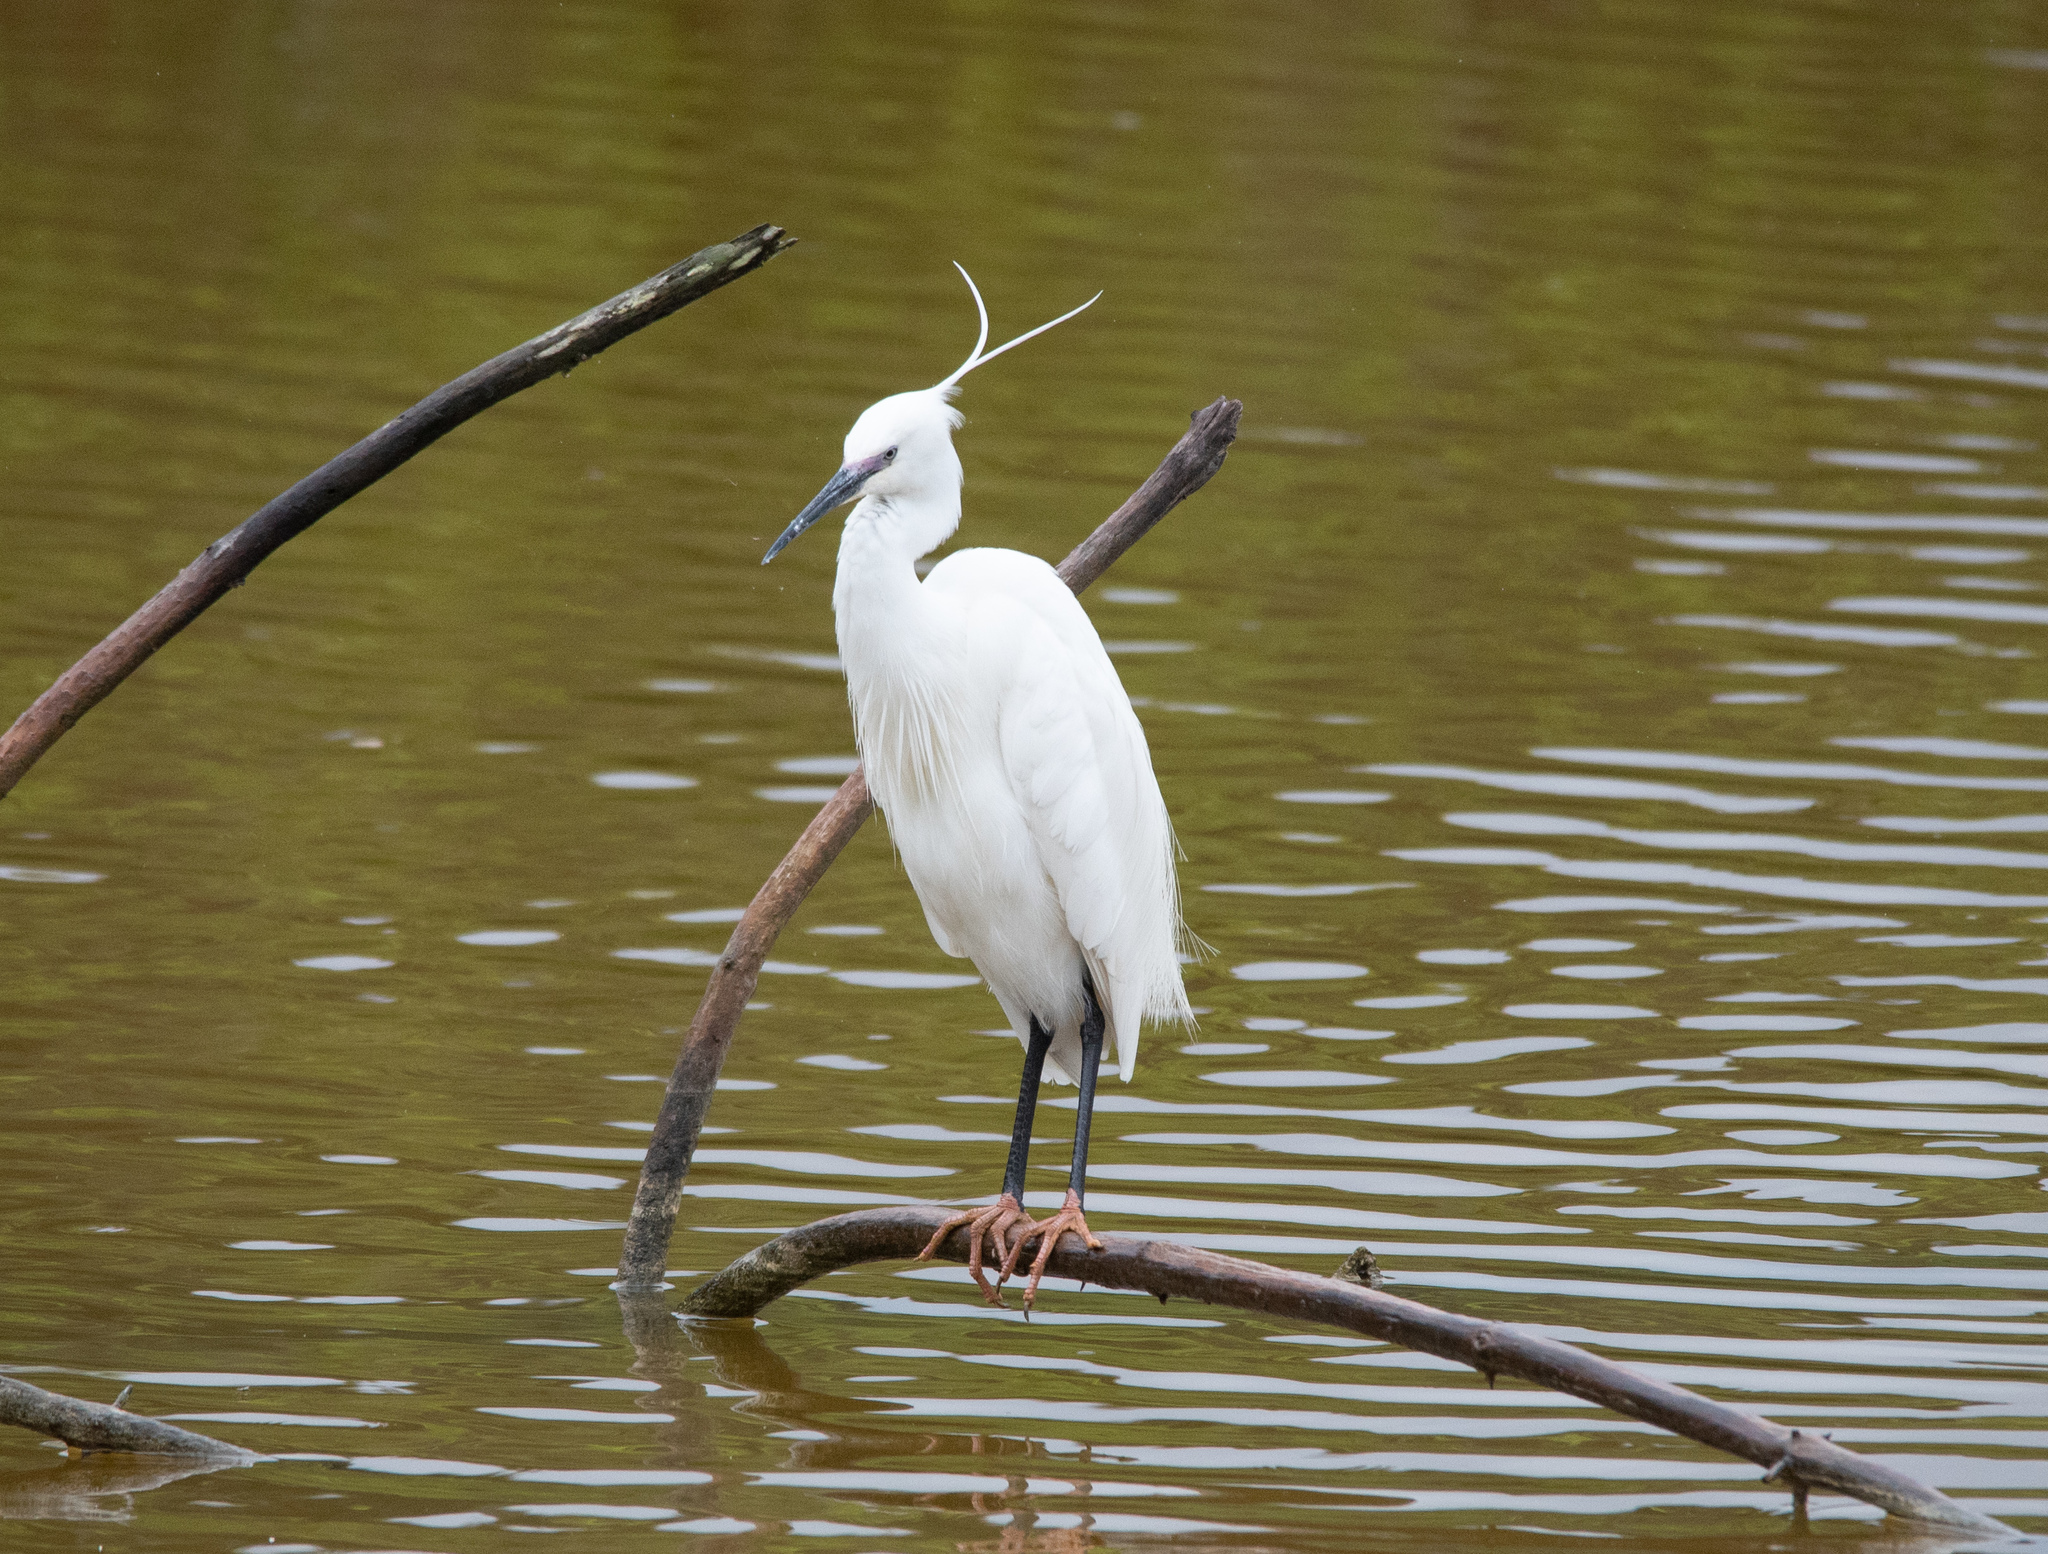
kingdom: Animalia
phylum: Chordata
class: Aves
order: Pelecaniformes
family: Ardeidae
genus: Egretta
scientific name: Egretta garzetta
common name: Little egret
